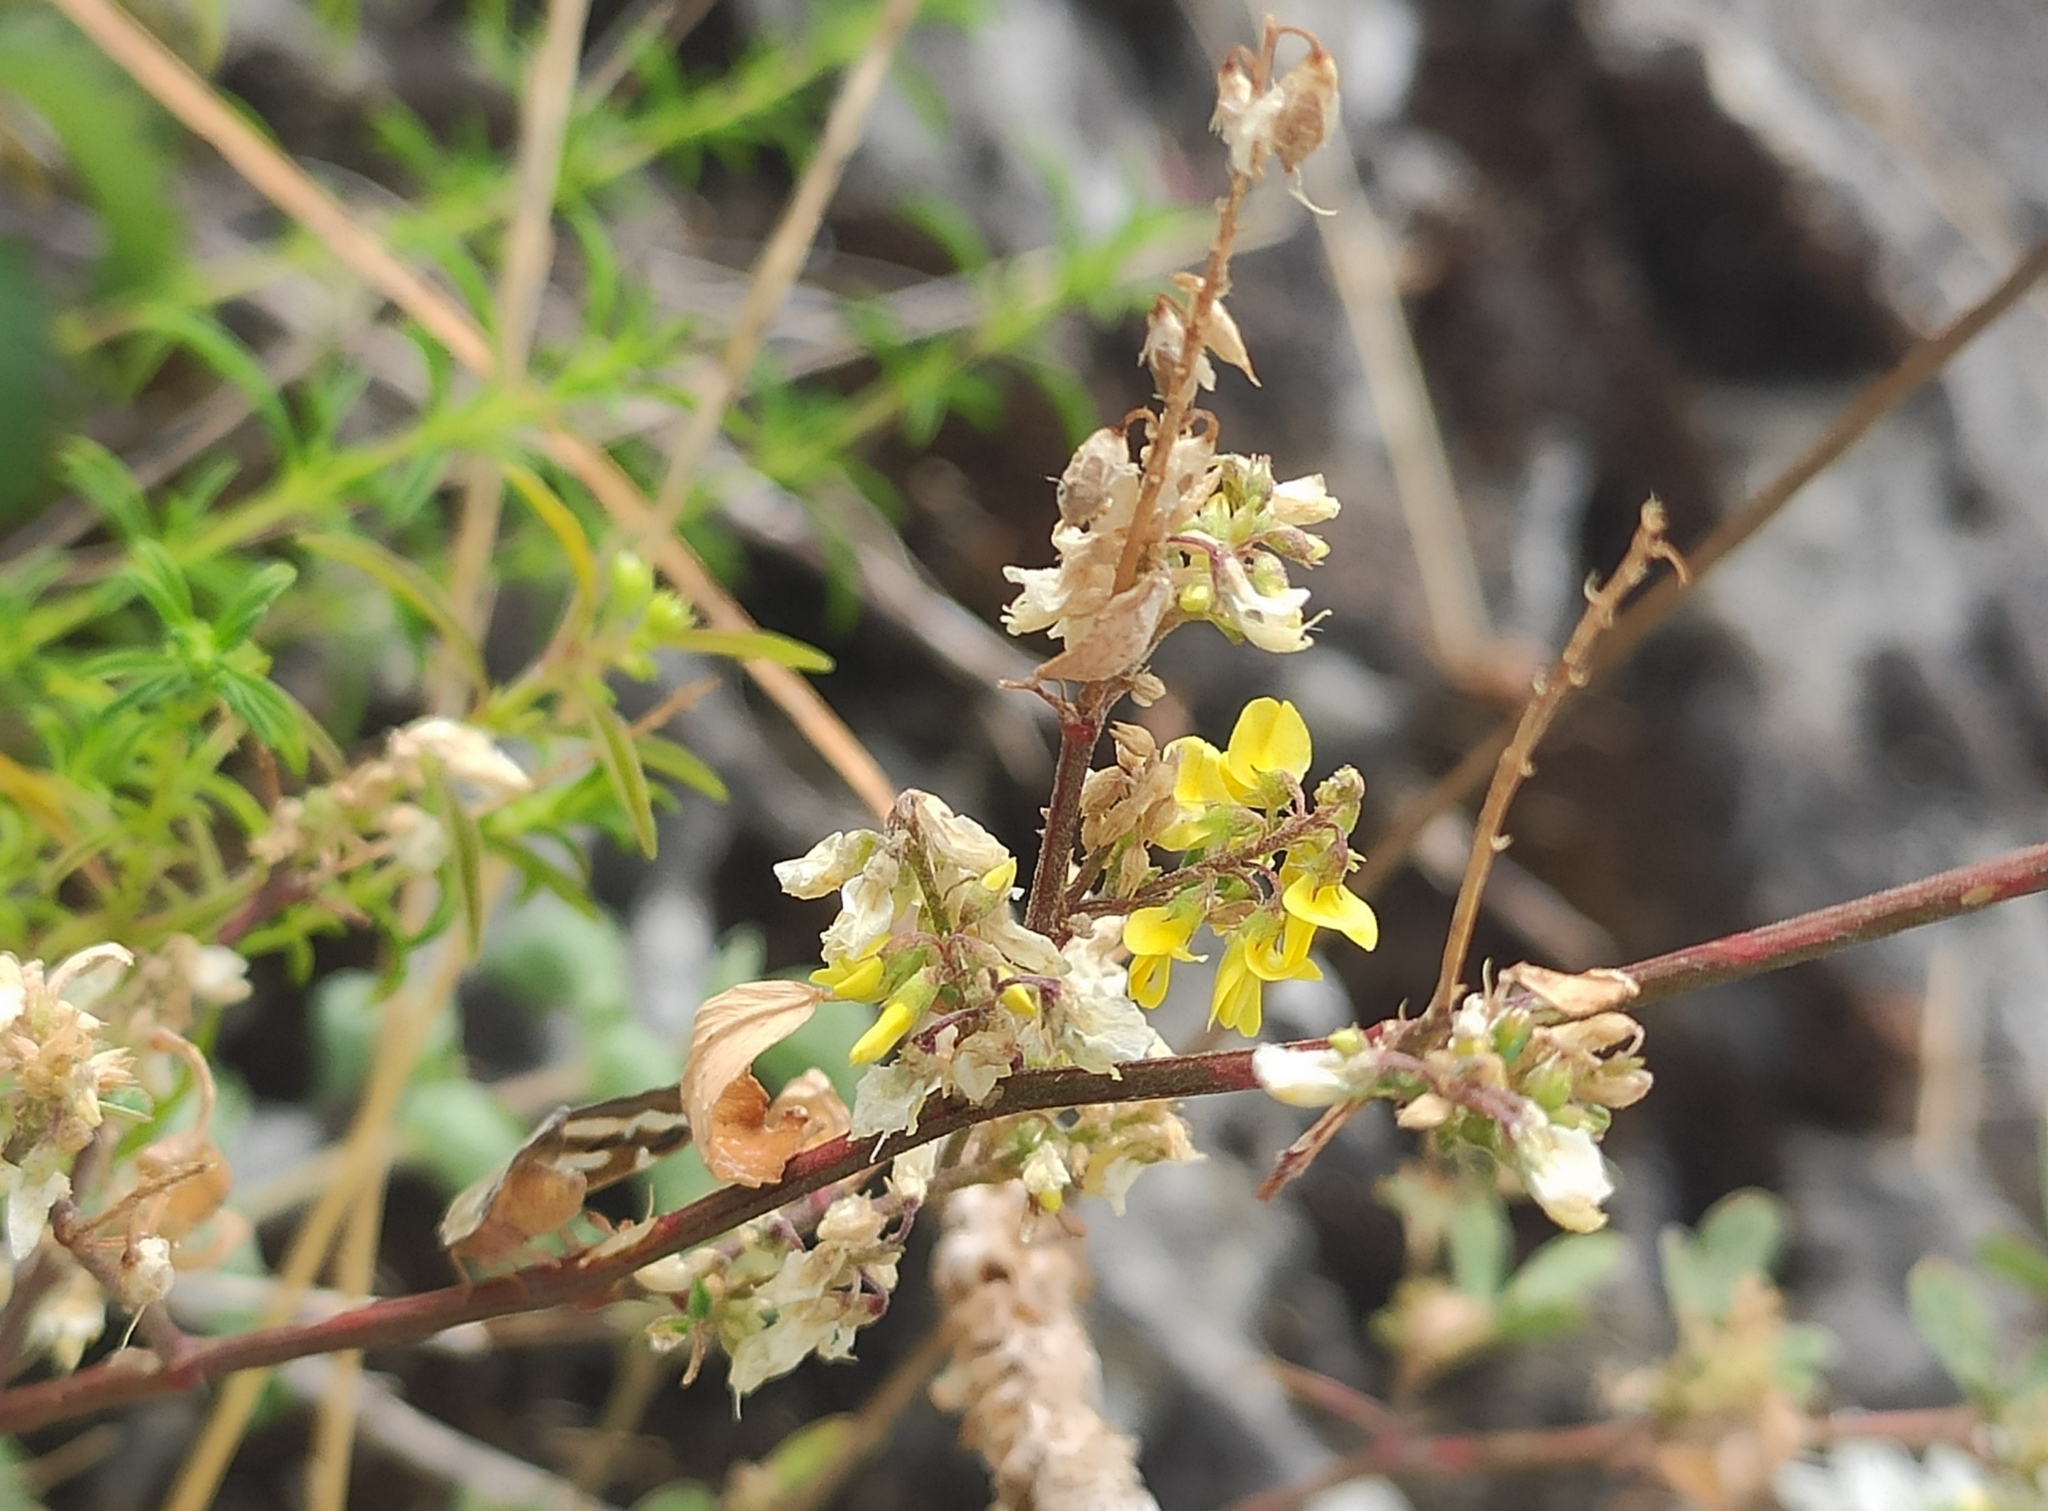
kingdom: Plantae
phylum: Tracheophyta
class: Magnoliopsida
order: Fabales
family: Fabaceae
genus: Melilotus
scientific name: Melilotus officinalis
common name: Sweetclover
